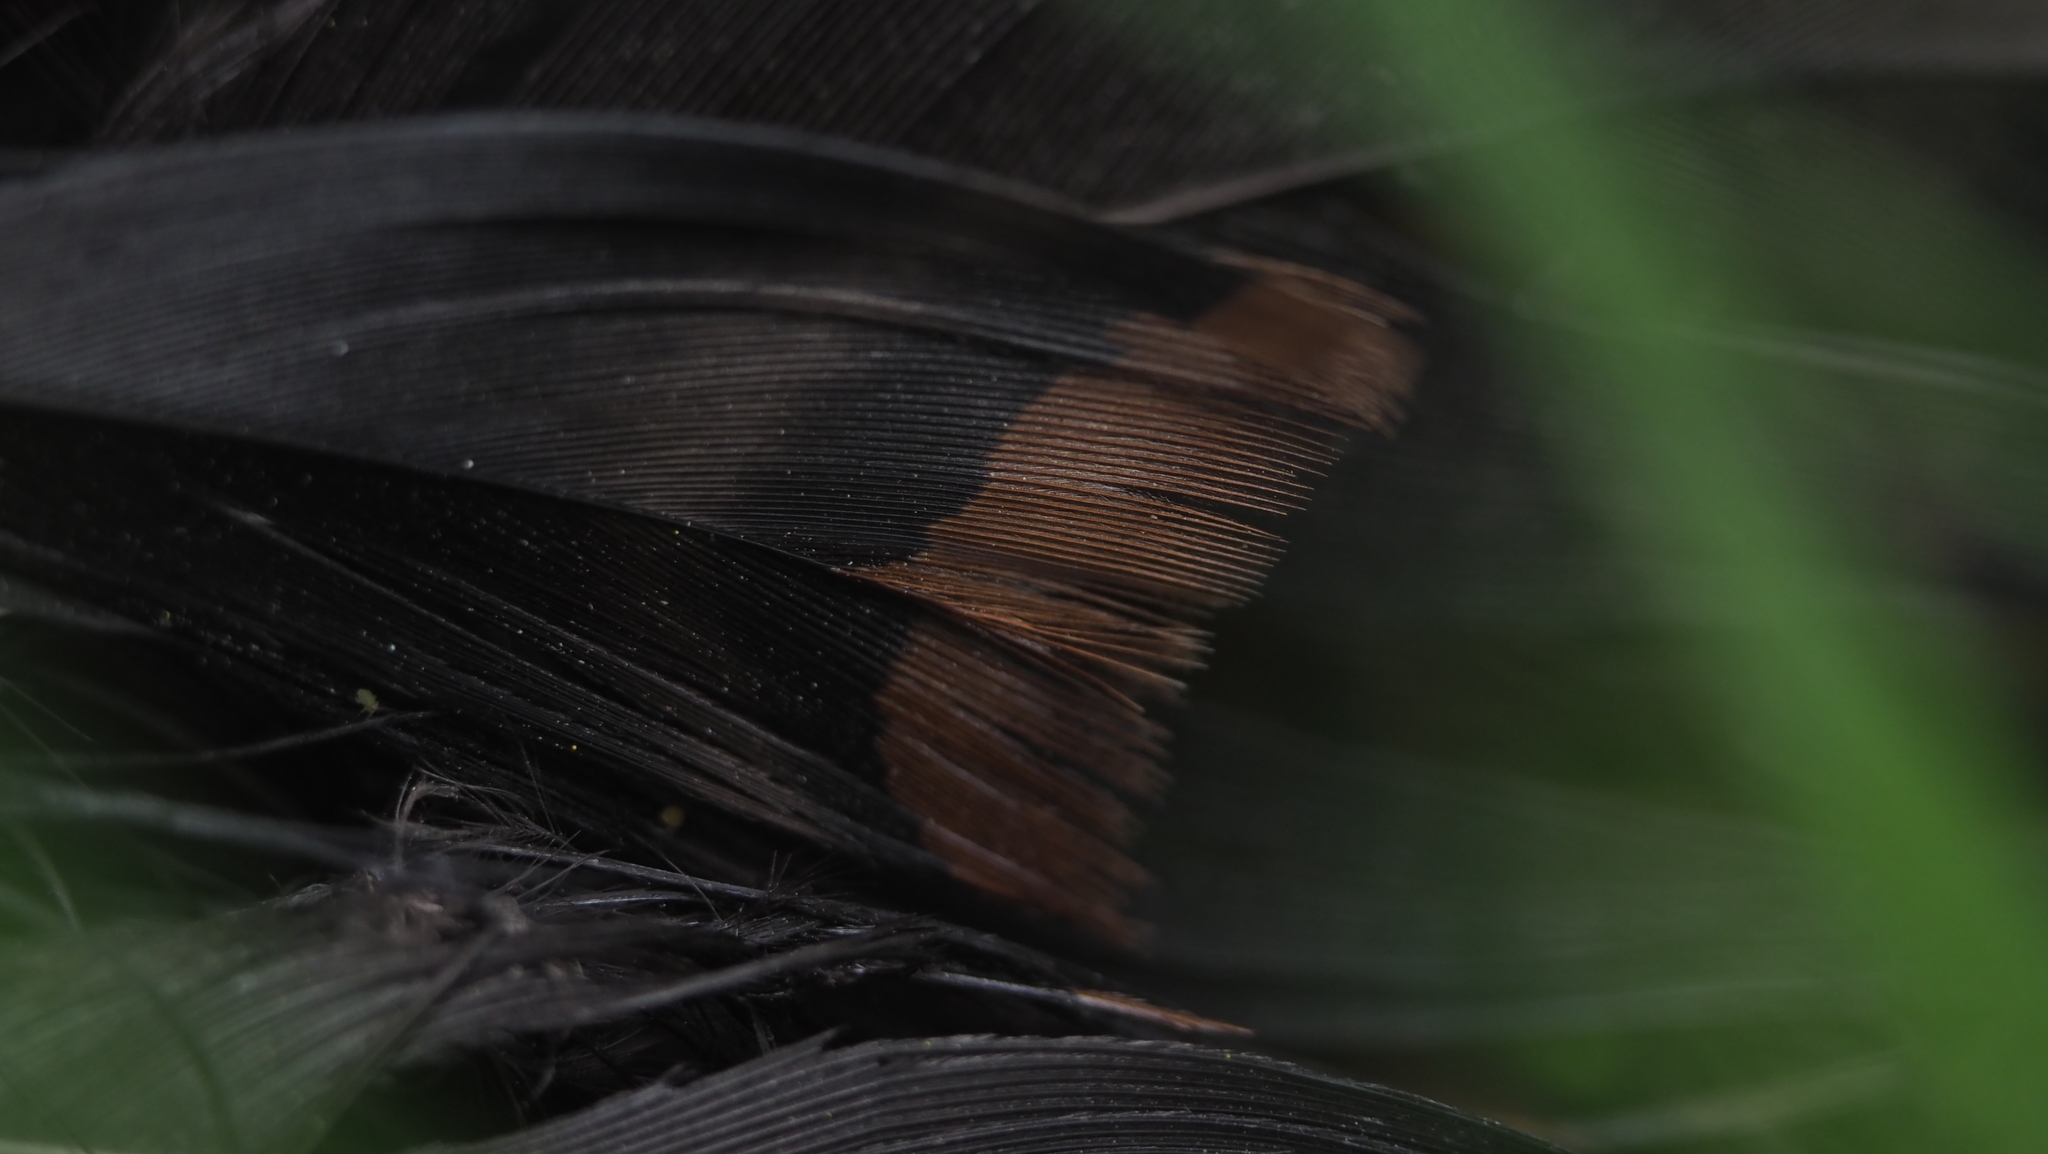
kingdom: Animalia
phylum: Chordata
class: Aves
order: Galliformes
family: Phasianidae
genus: Meleagris
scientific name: Meleagris gallopavo
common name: Wild turkey
